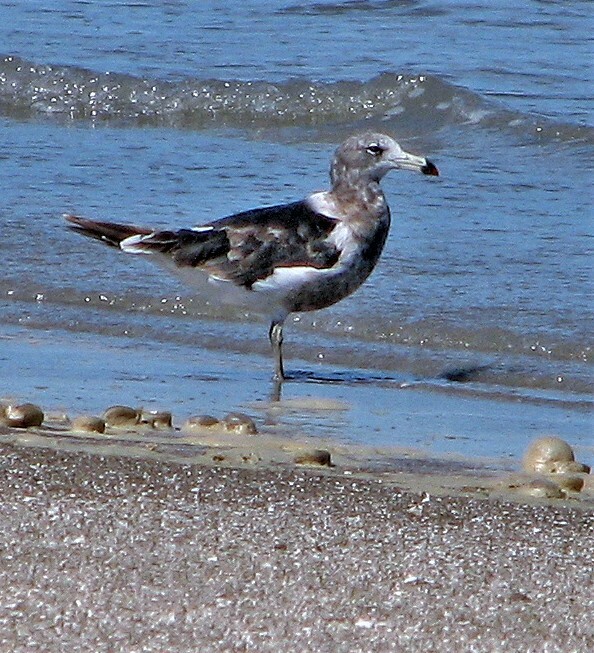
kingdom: Animalia
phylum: Chordata
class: Aves
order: Charadriiformes
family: Laridae
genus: Larus
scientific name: Larus atlanticus
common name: Olrog's gull
